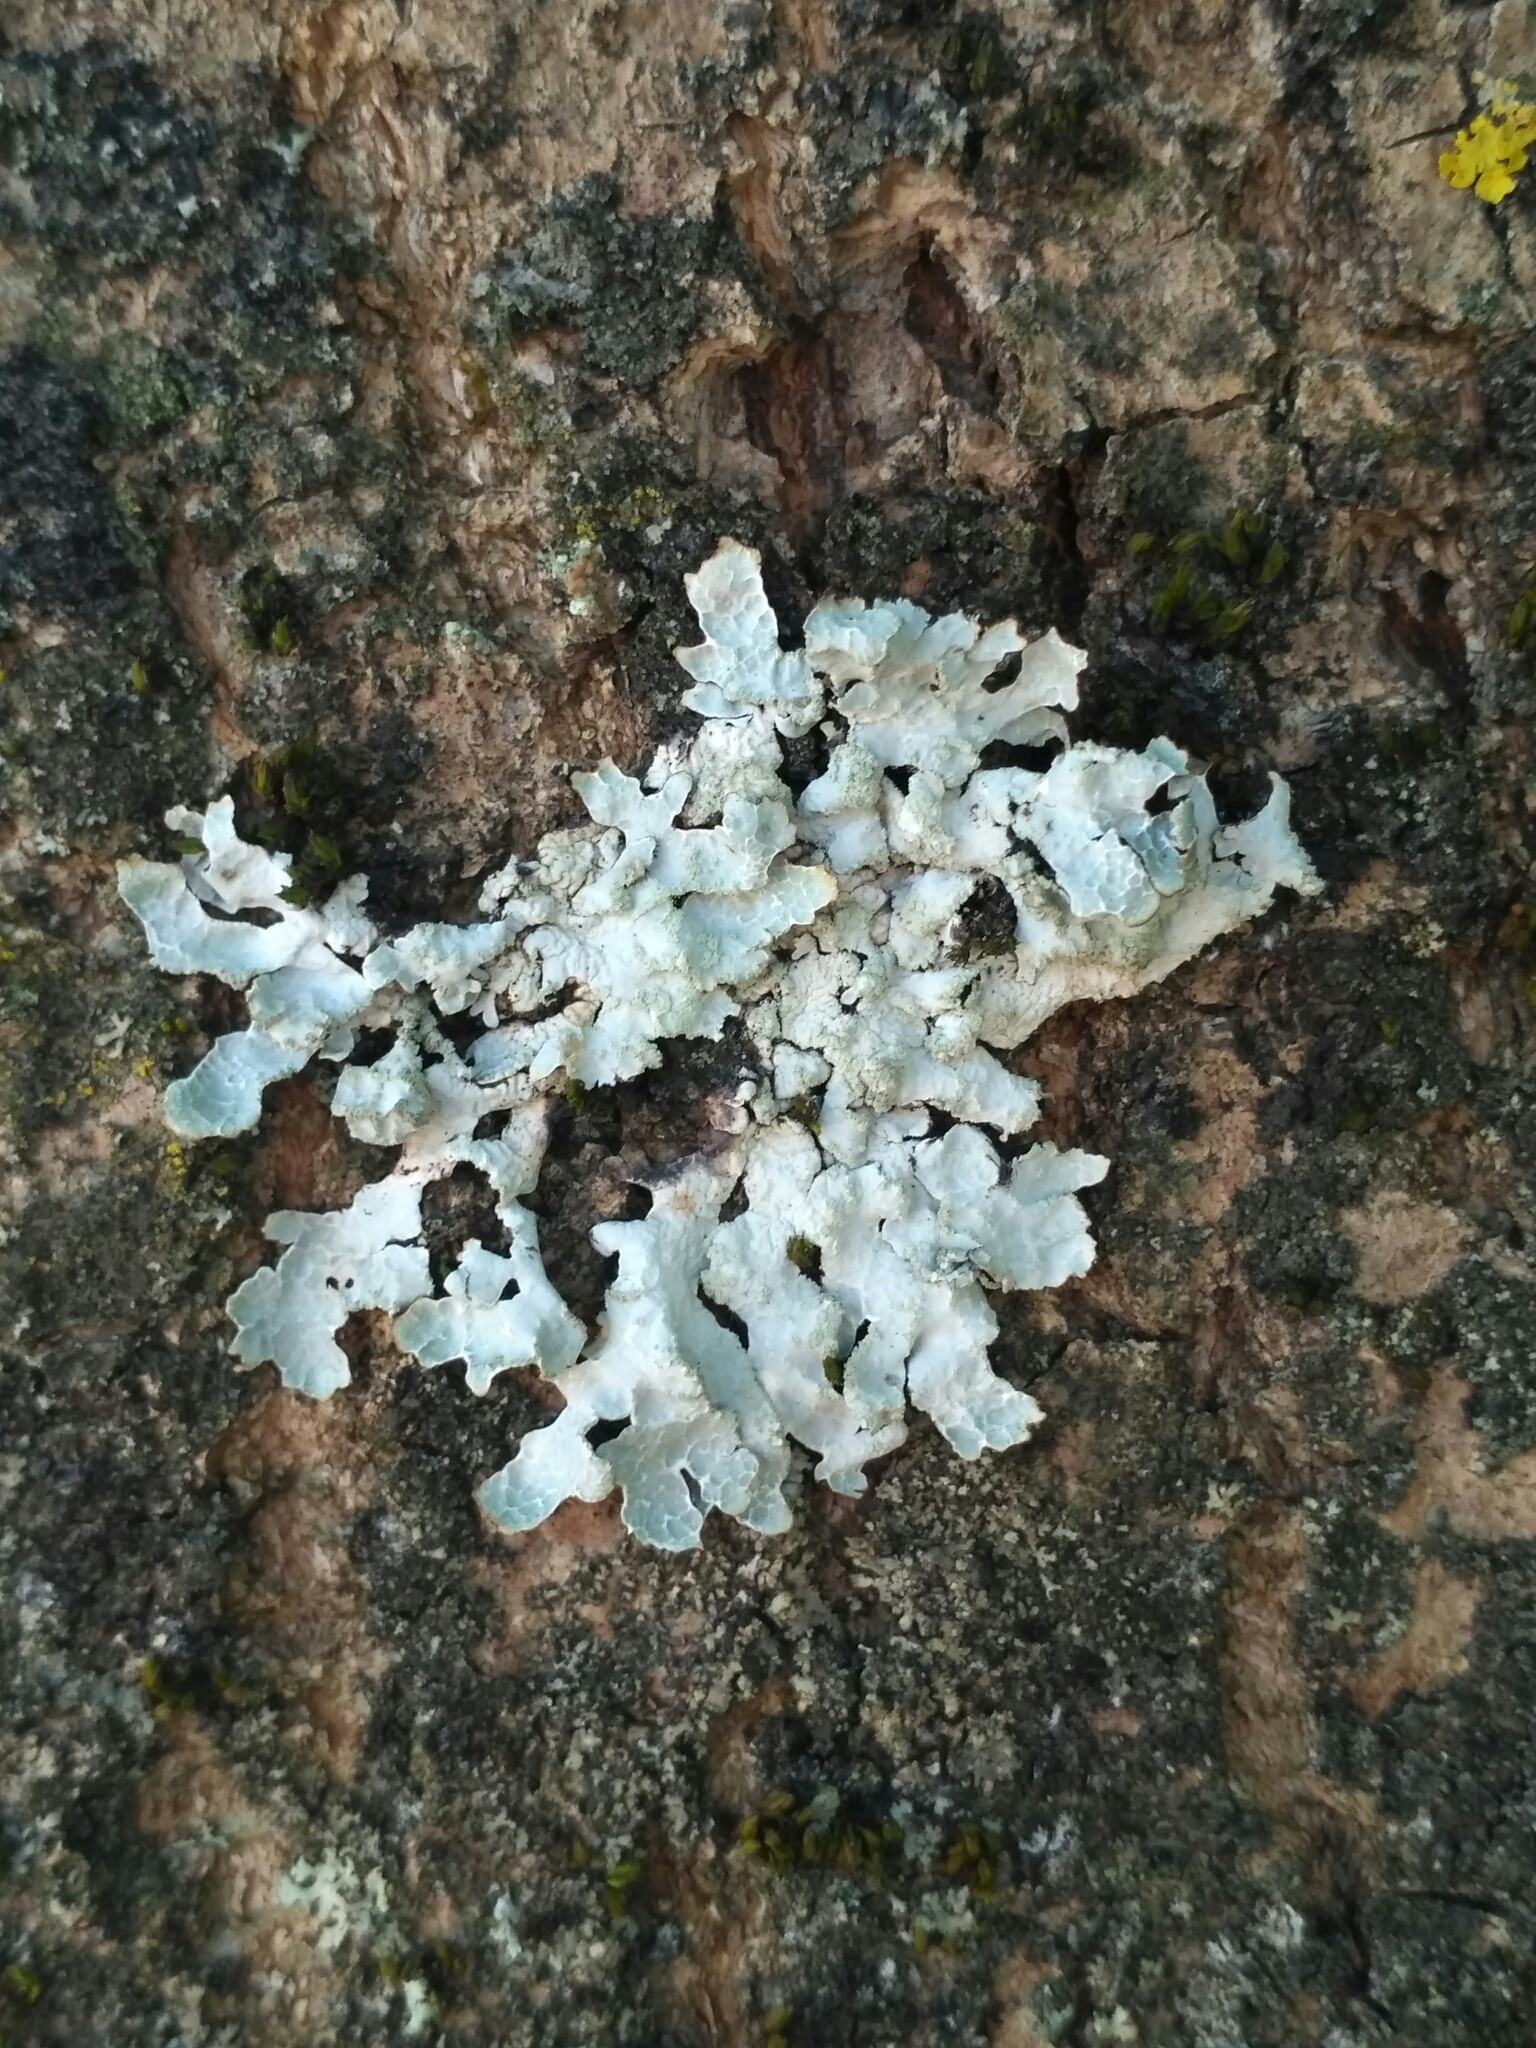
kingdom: Fungi
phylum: Ascomycota
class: Lecanoromycetes
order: Lecanorales
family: Parmeliaceae
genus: Parmelia
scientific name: Parmelia sulcata
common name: Netted shield lichen
